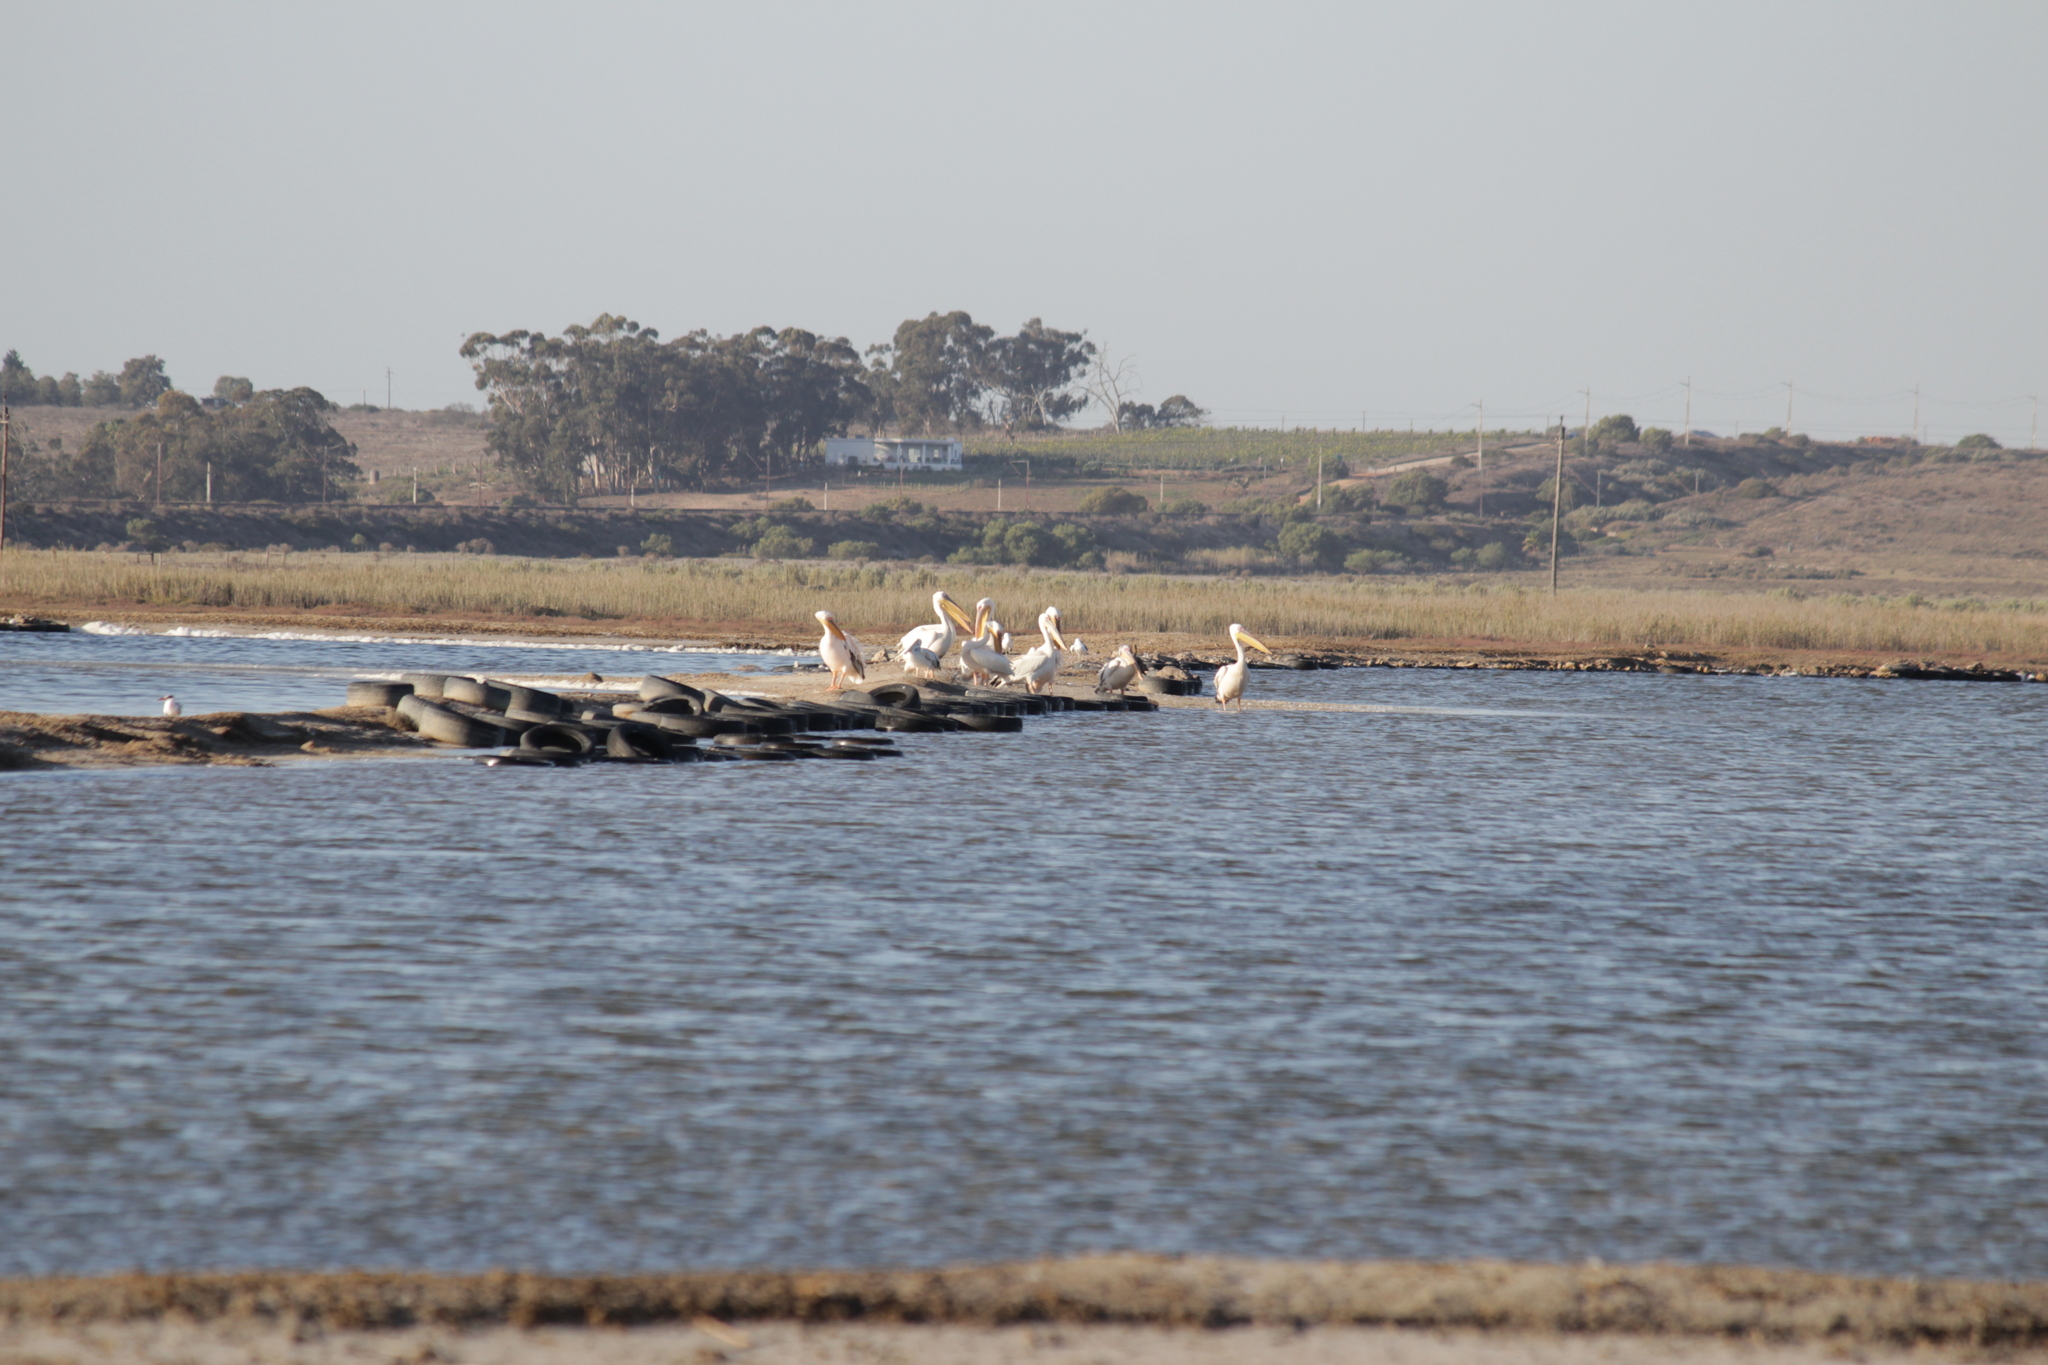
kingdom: Animalia
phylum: Chordata
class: Aves
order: Pelecaniformes
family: Pelecanidae
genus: Pelecanus
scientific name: Pelecanus onocrotalus
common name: Great white pelican
